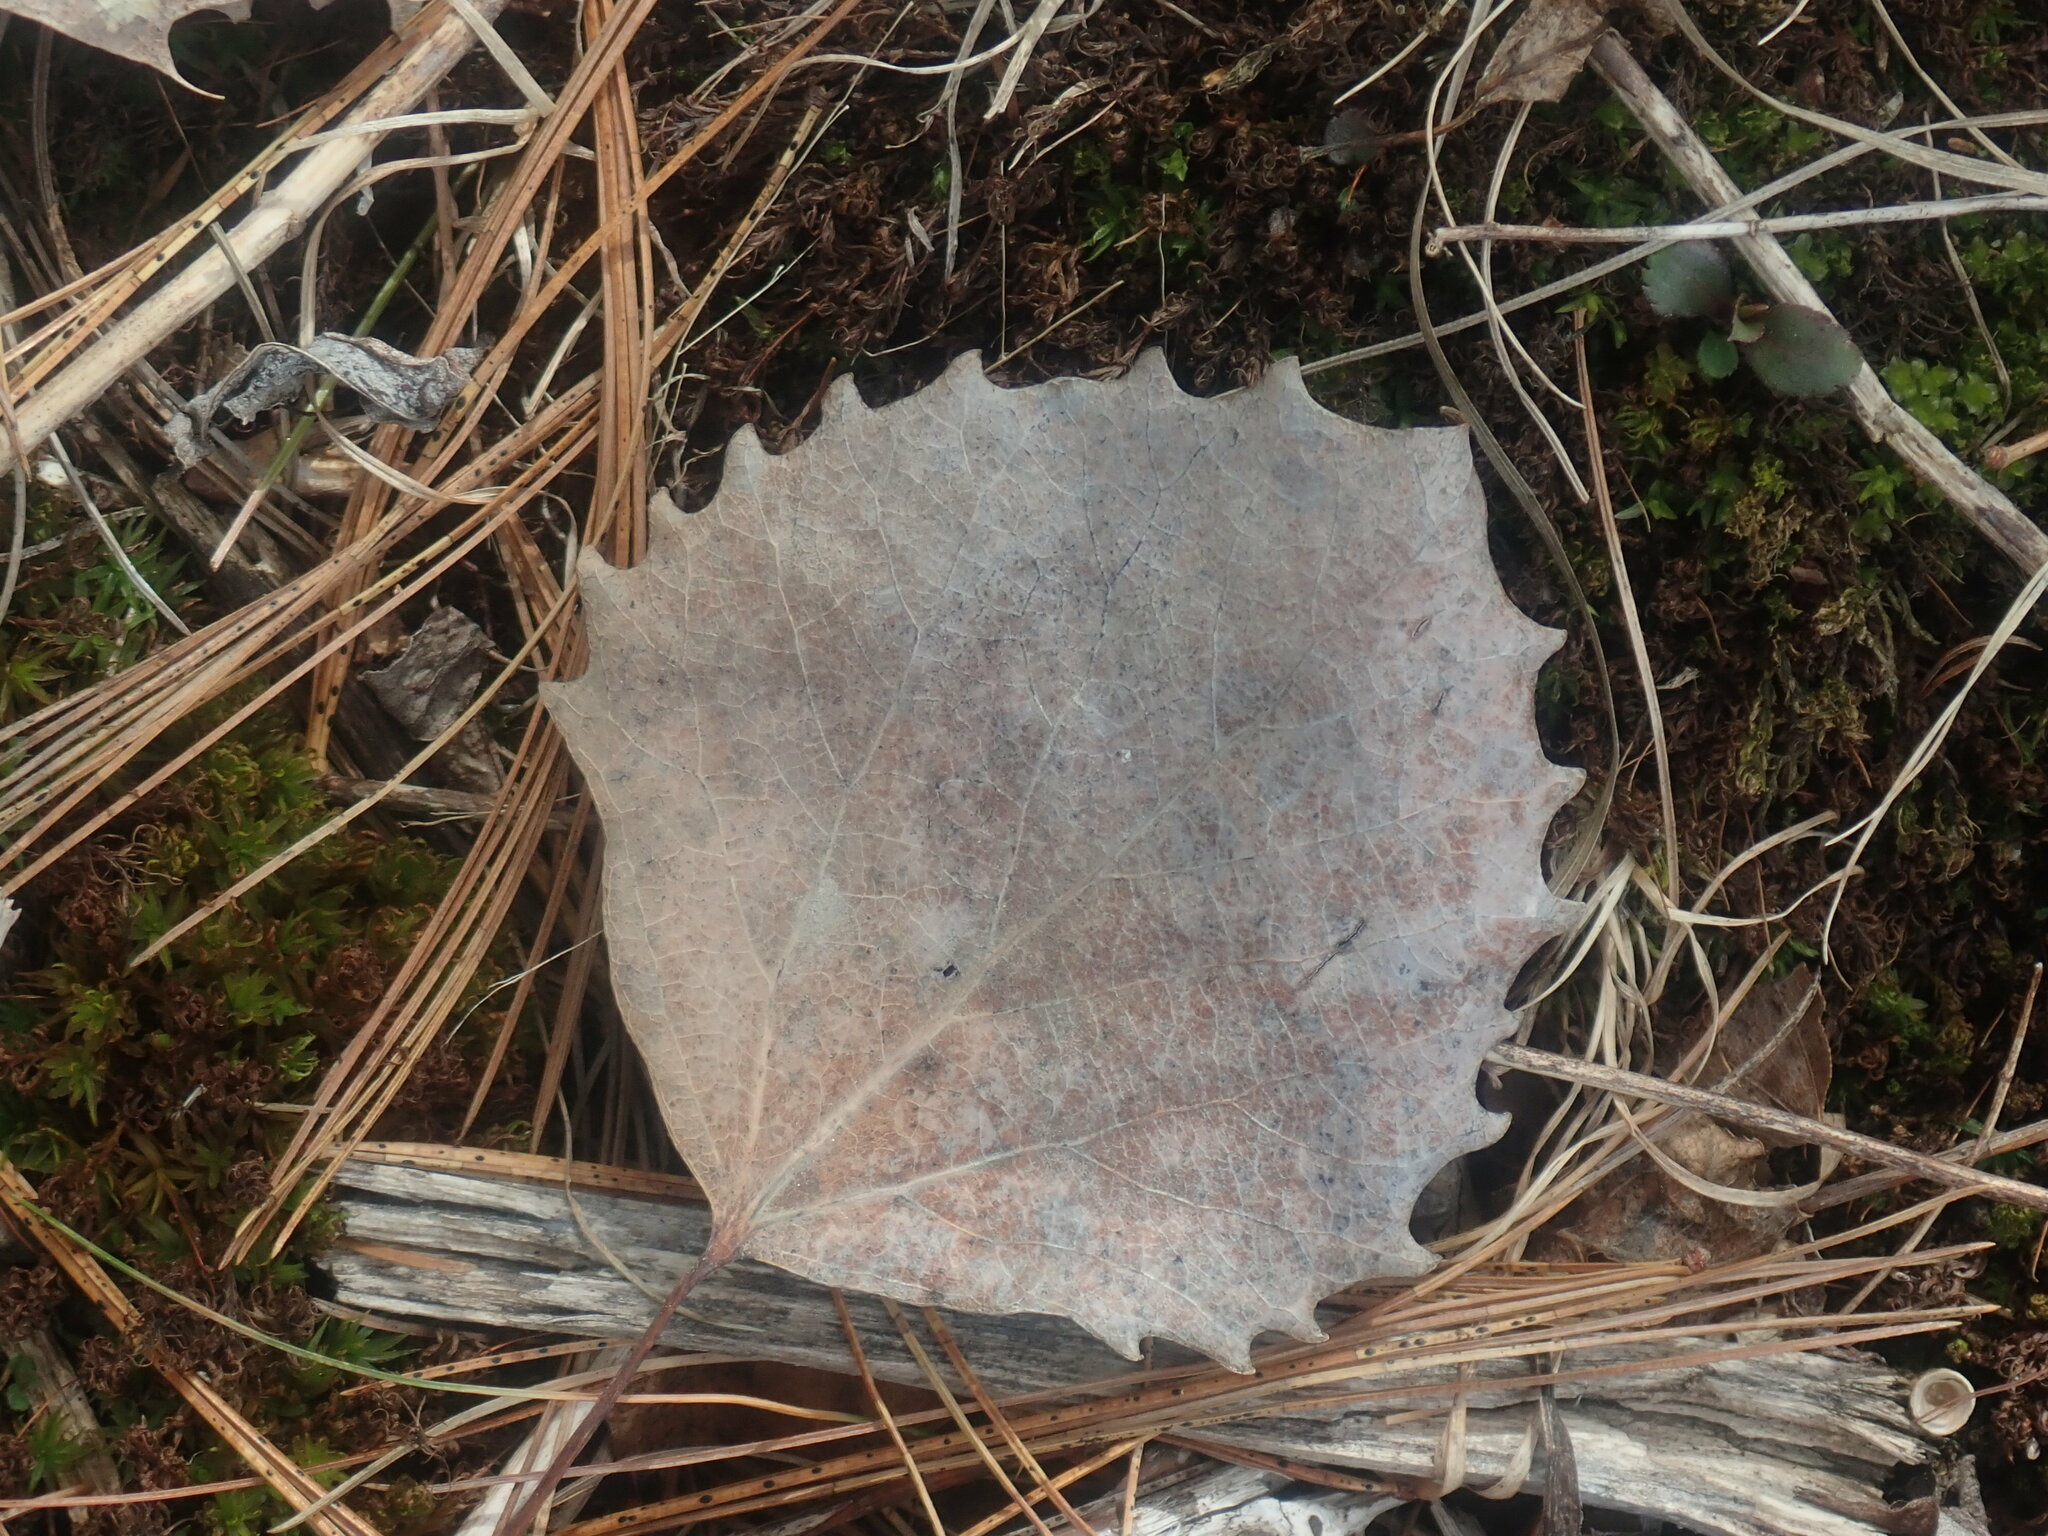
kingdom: Plantae
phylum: Tracheophyta
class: Magnoliopsida
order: Malpighiales
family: Salicaceae
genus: Populus
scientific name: Populus grandidentata
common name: Bigtooth aspen
